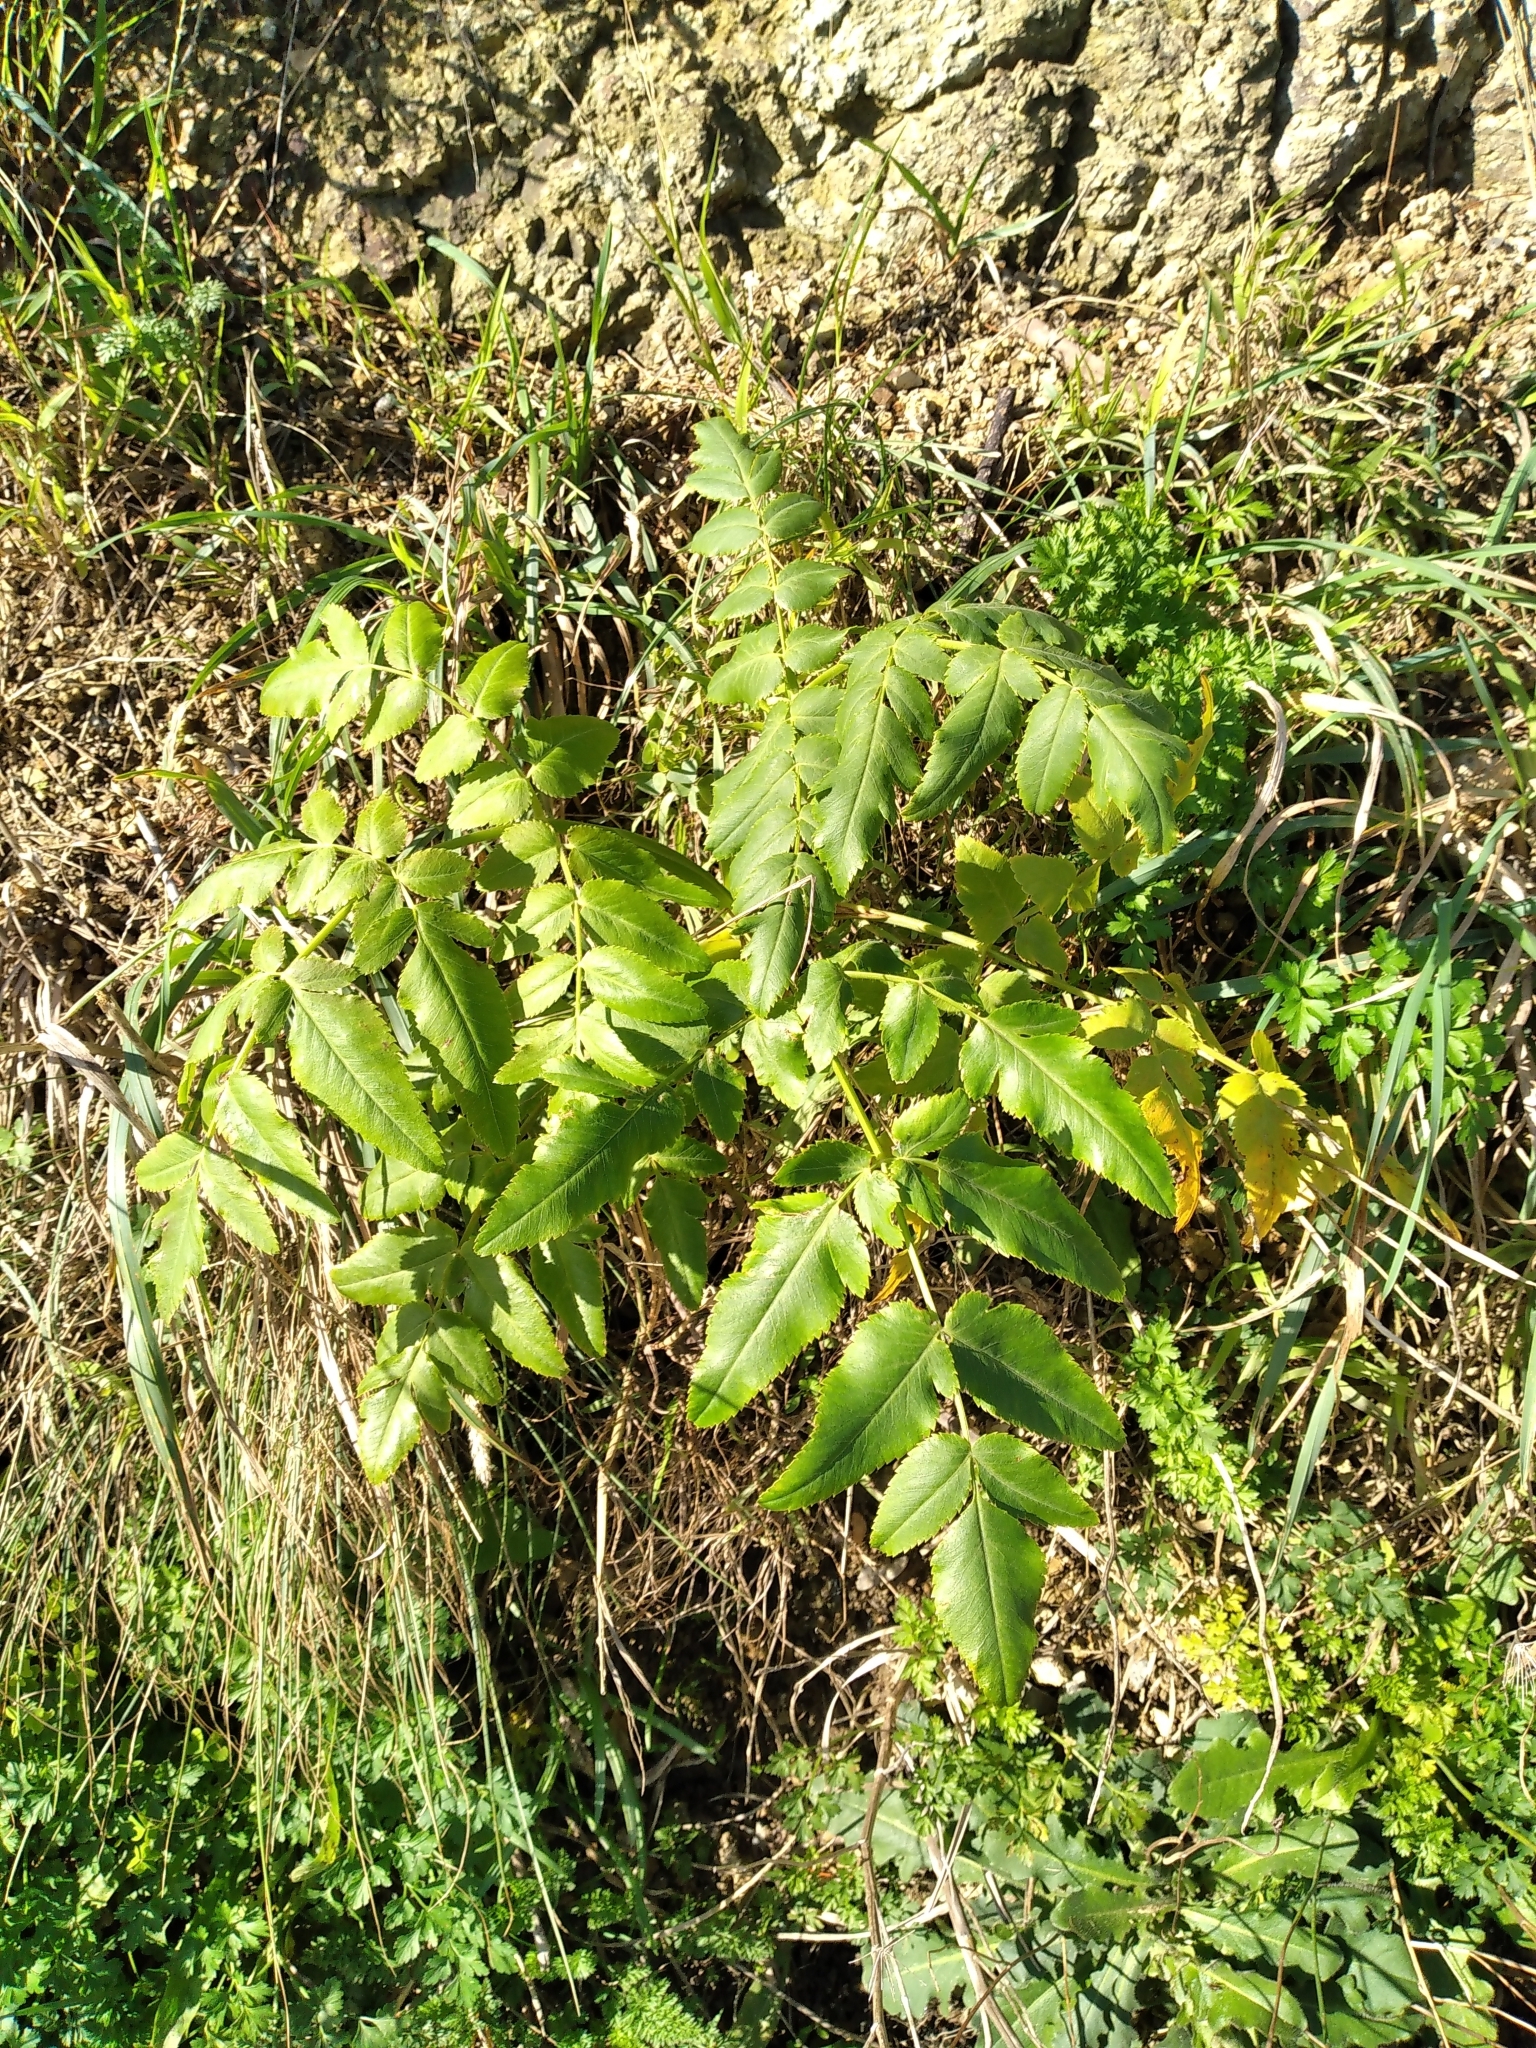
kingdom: Plantae
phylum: Tracheophyta
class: Magnoliopsida
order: Apiales
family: Apiaceae
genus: Daucus
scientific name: Daucus decipiens
